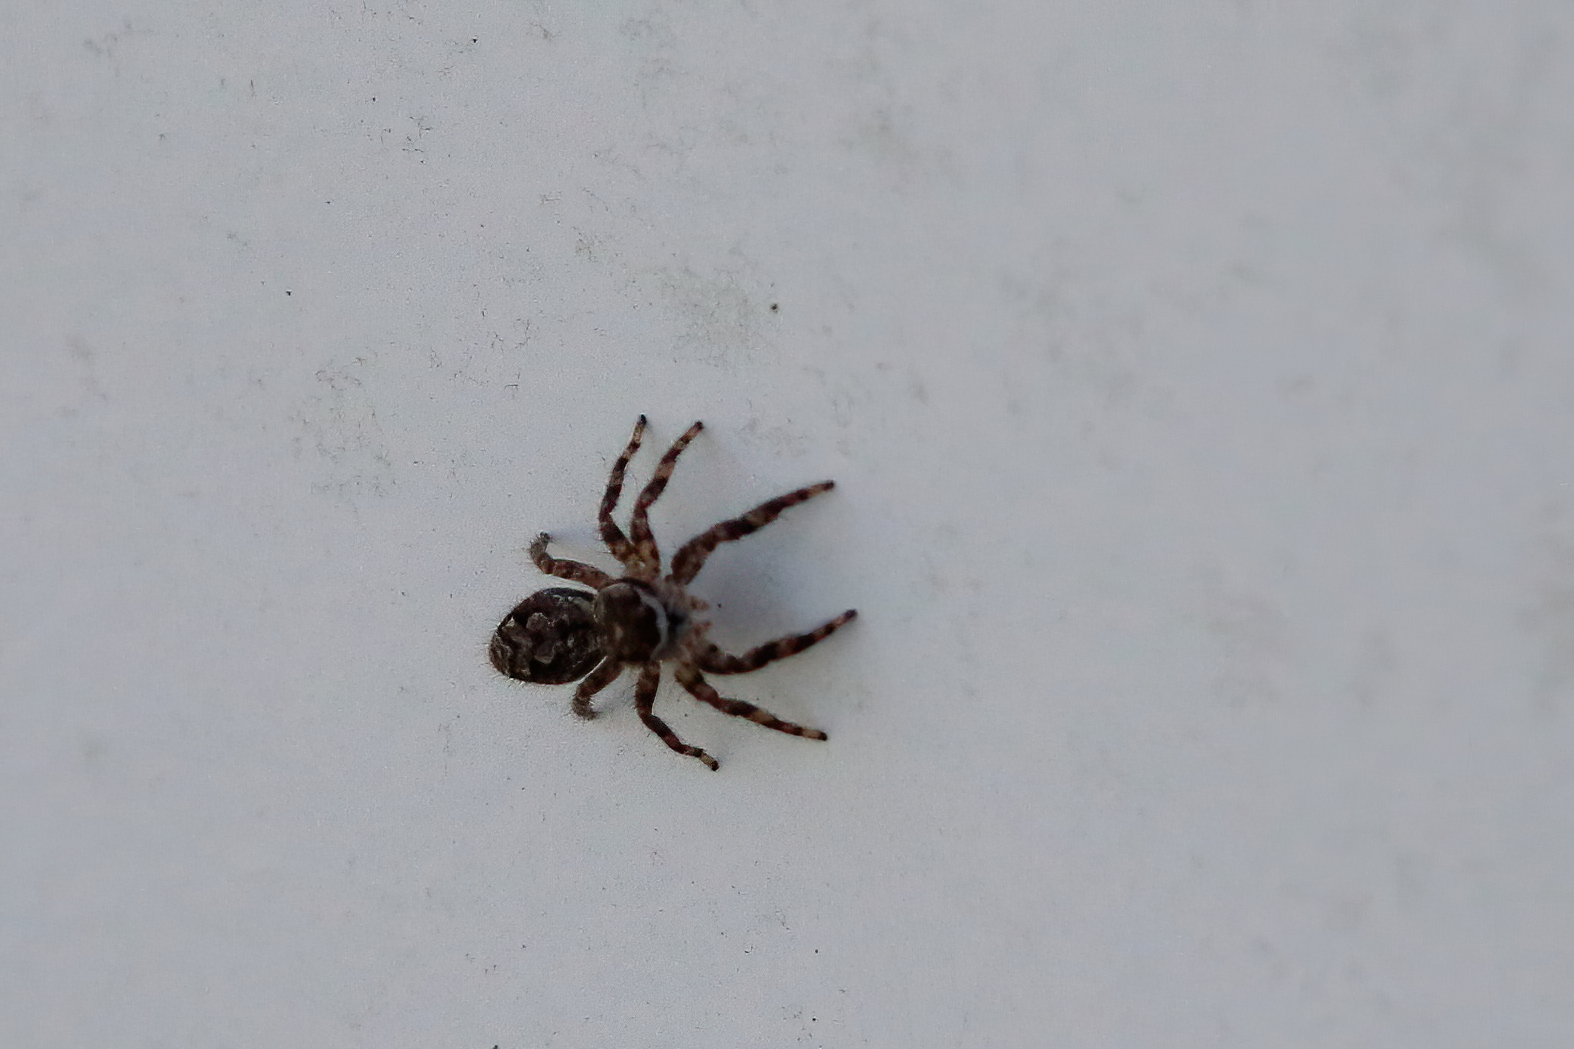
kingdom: Animalia
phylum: Arthropoda
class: Arachnida
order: Araneae
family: Salticidae
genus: Platycryptus
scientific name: Platycryptus undatus
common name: Tan jumping spider
